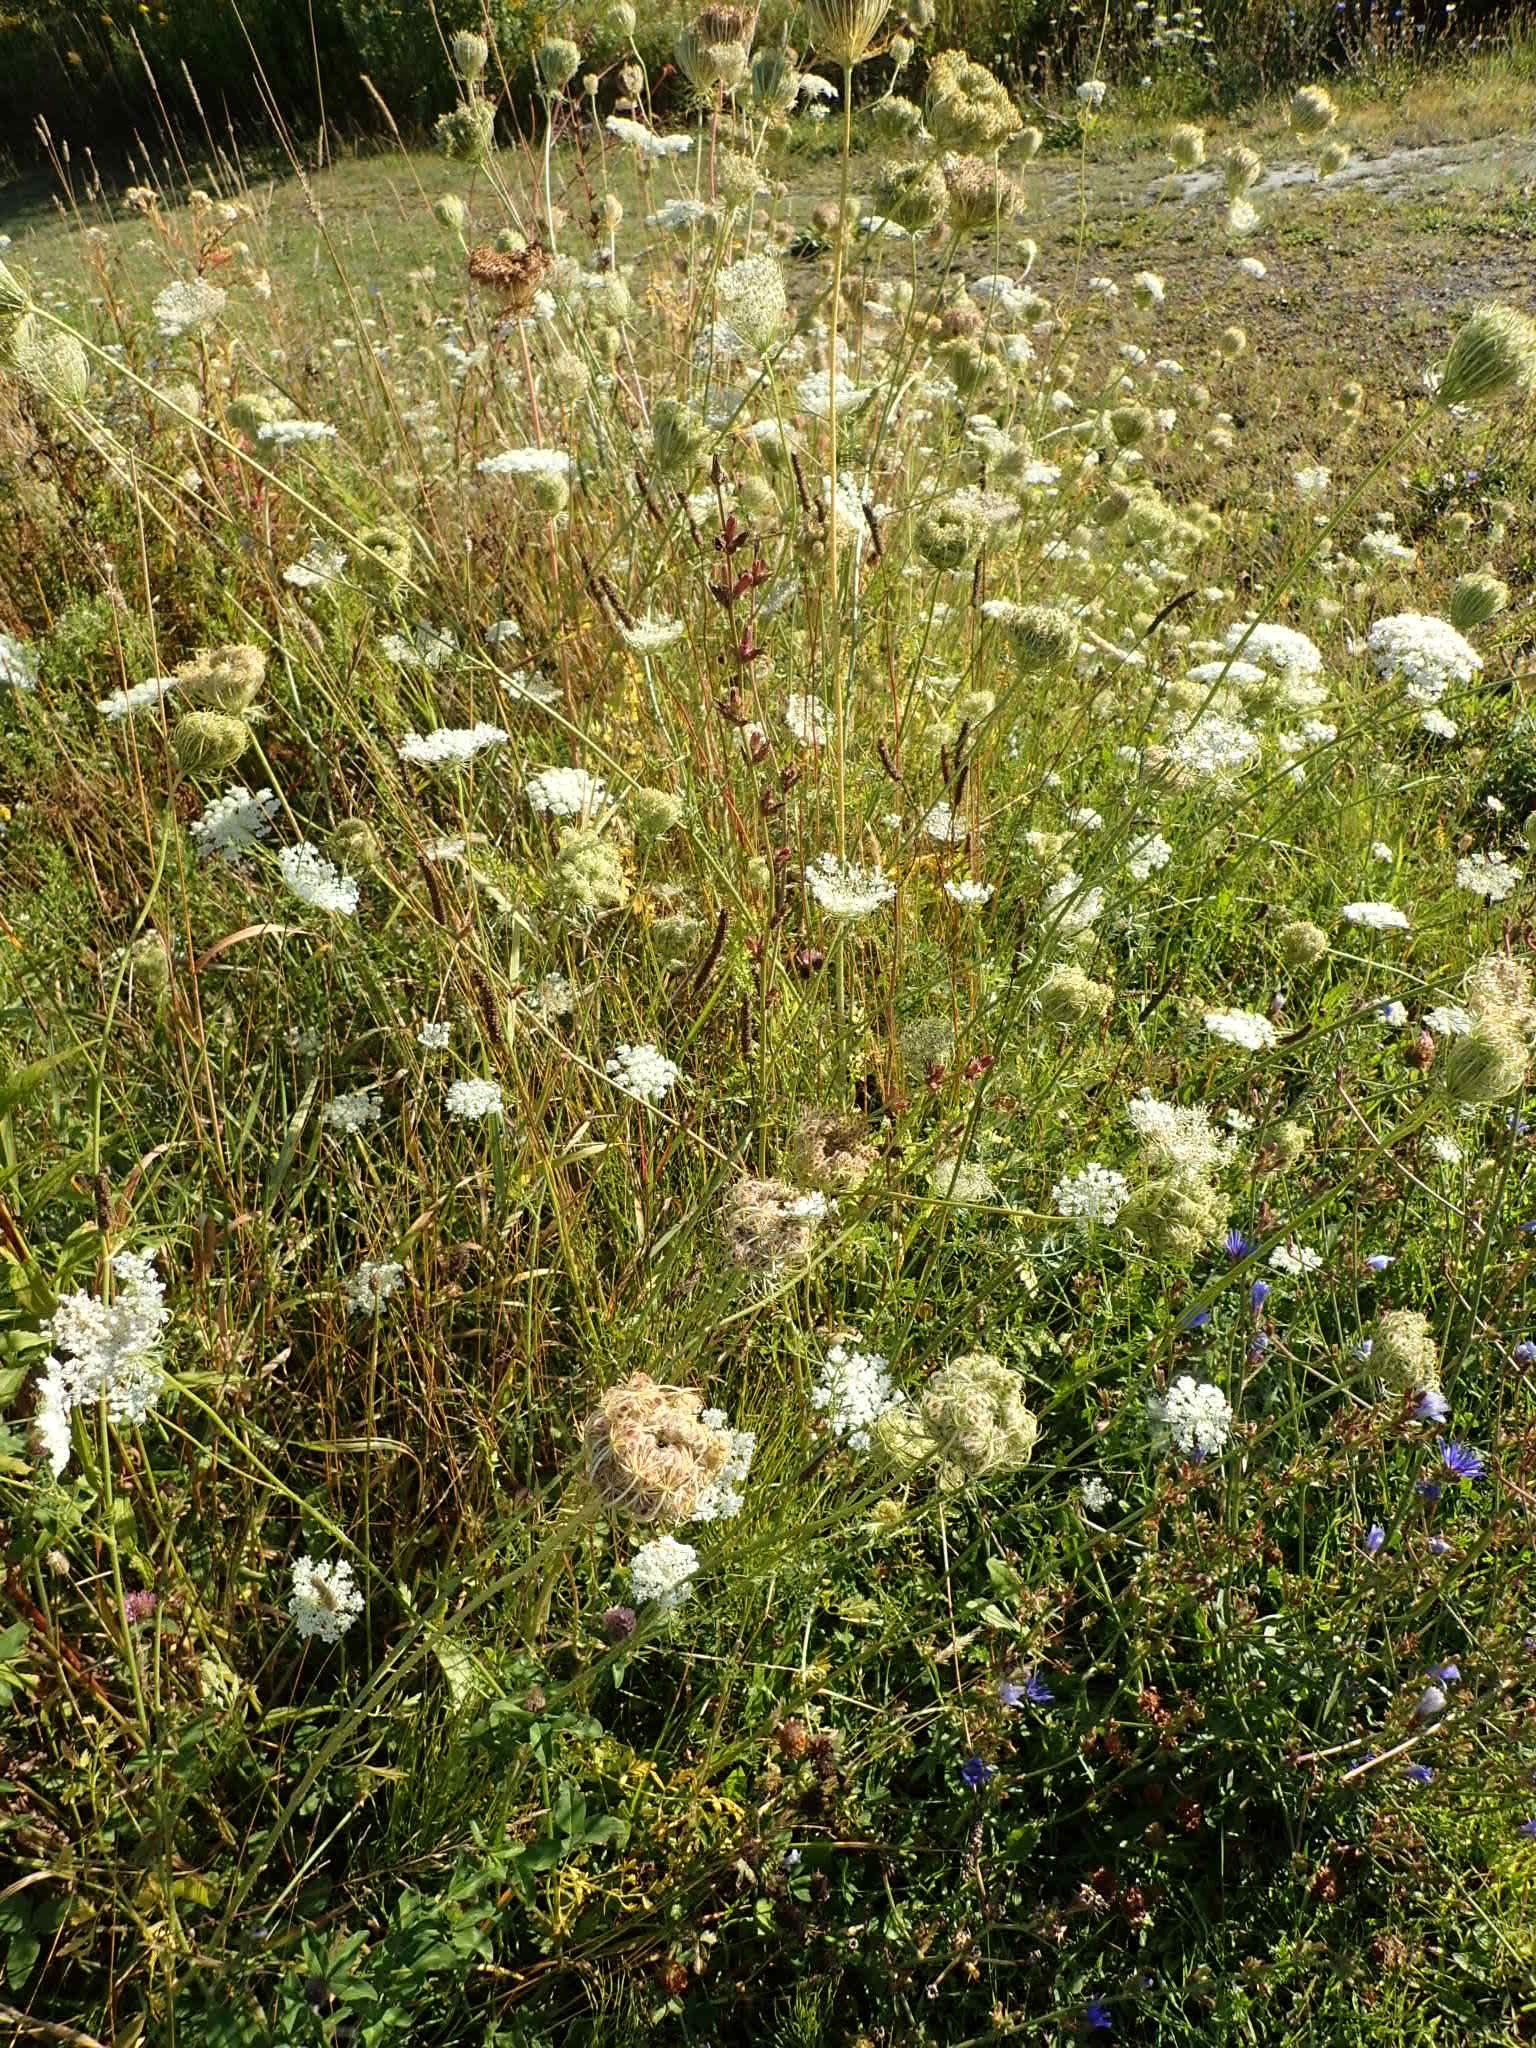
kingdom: Plantae
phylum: Tracheophyta
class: Magnoliopsida
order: Apiales
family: Apiaceae
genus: Daucus
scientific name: Daucus carota
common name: Wild carrot
